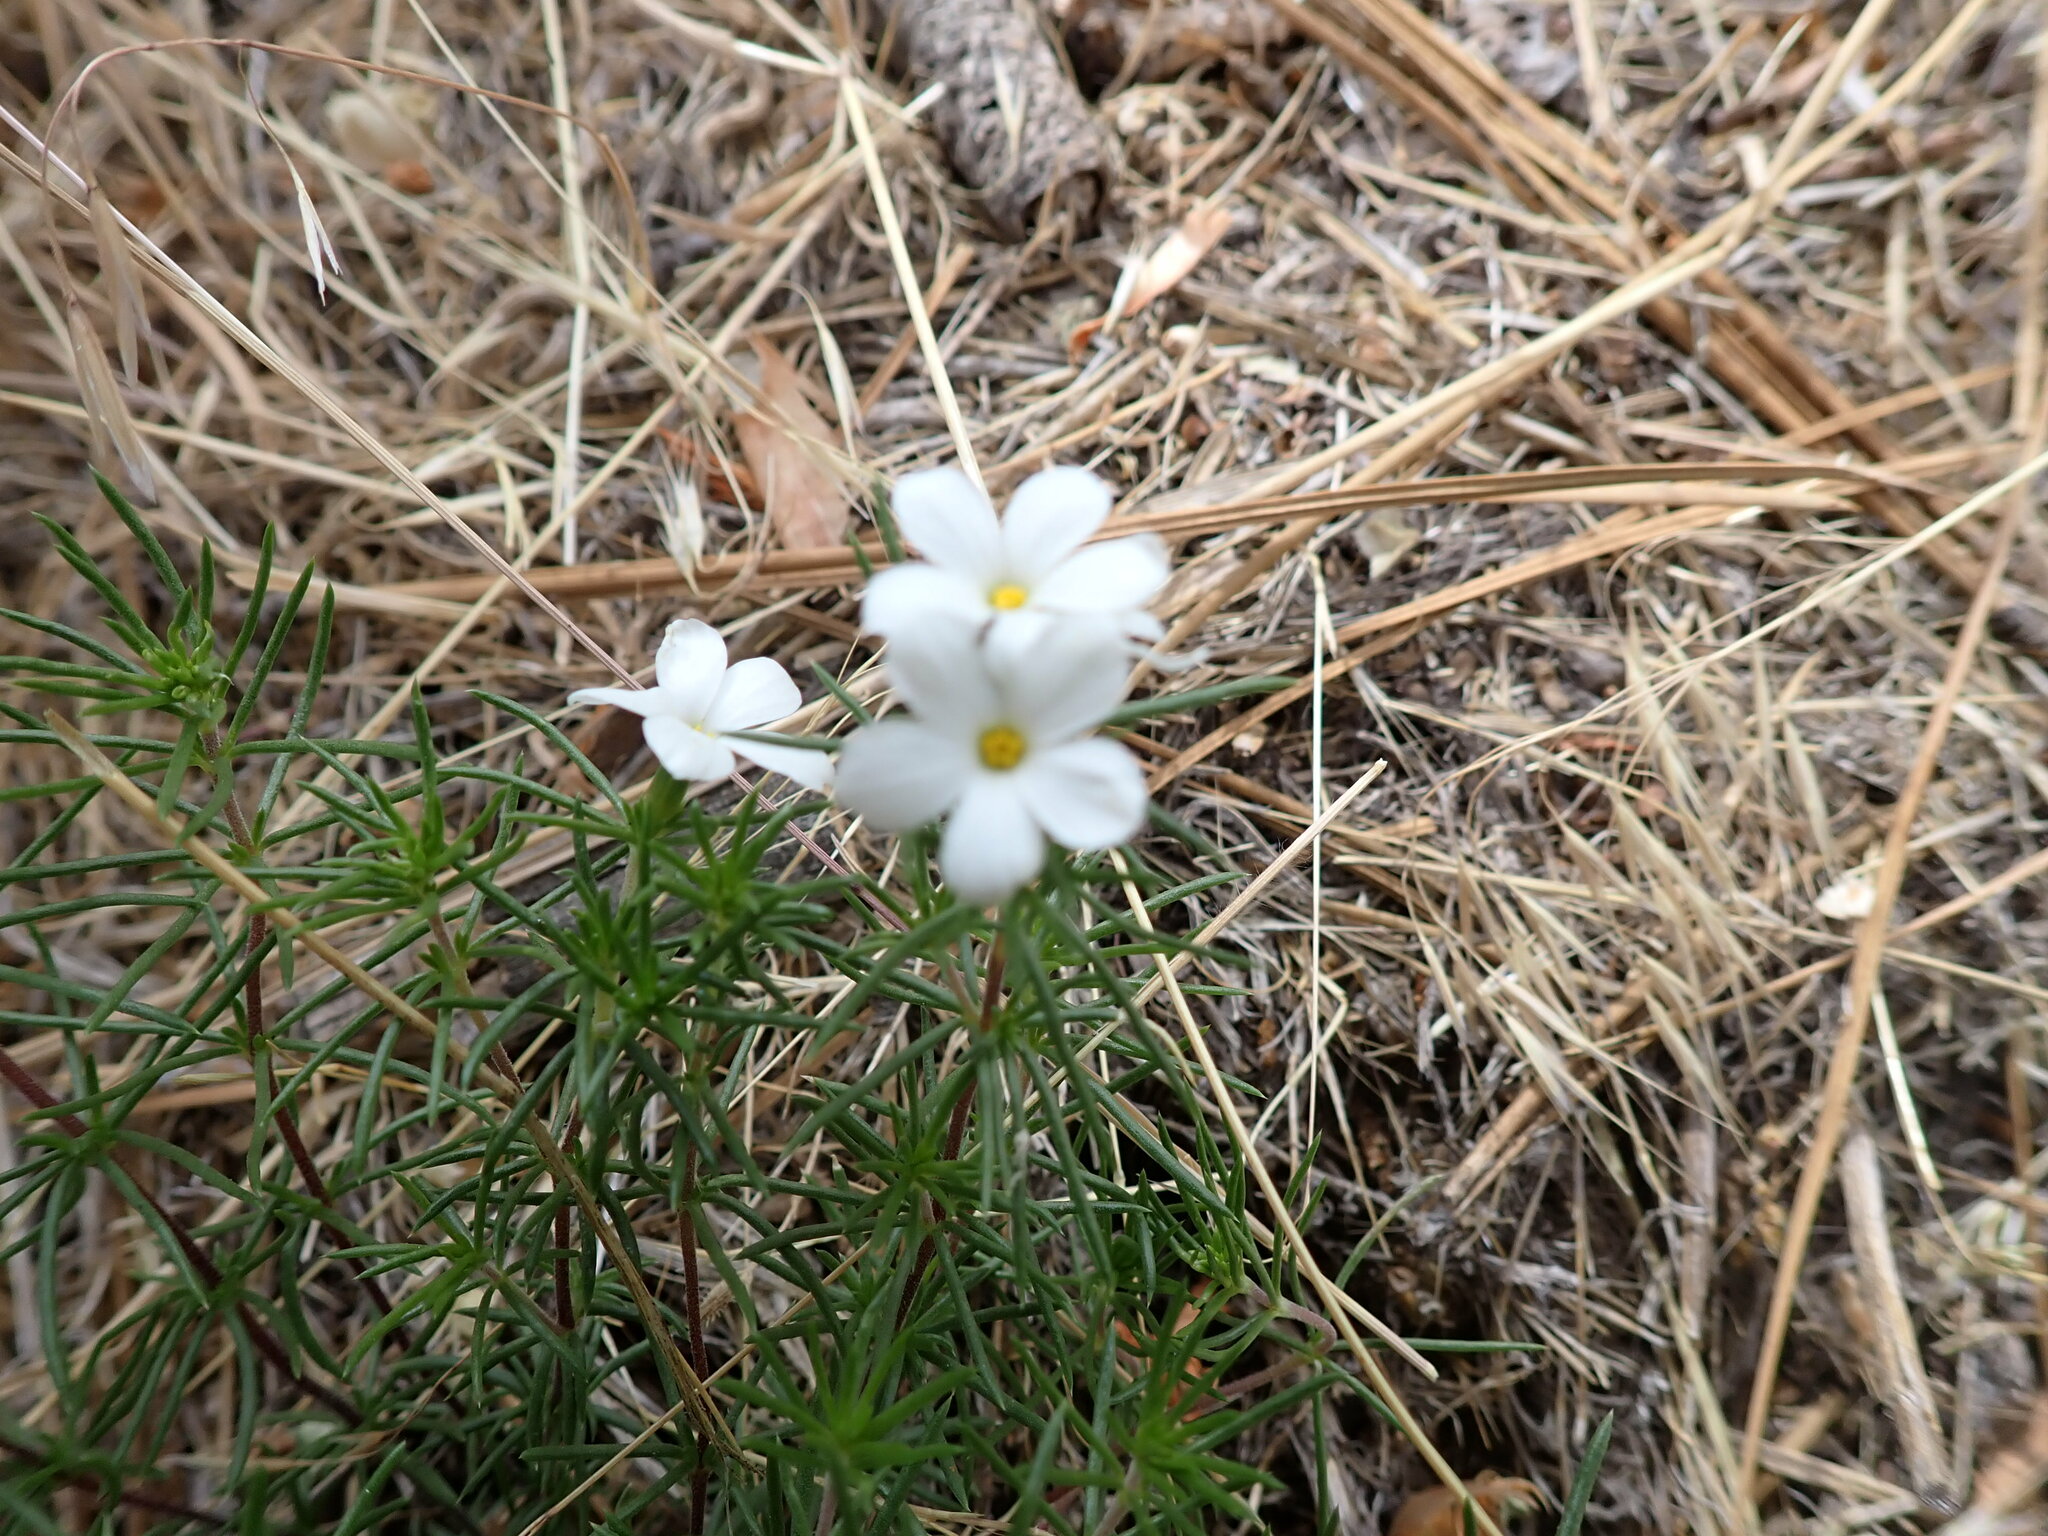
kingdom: Plantae
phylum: Tracheophyta
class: Magnoliopsida
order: Ericales
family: Polemoniaceae
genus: Leptosiphon
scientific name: Leptosiphon floribundum
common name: Many-flower linanthus
